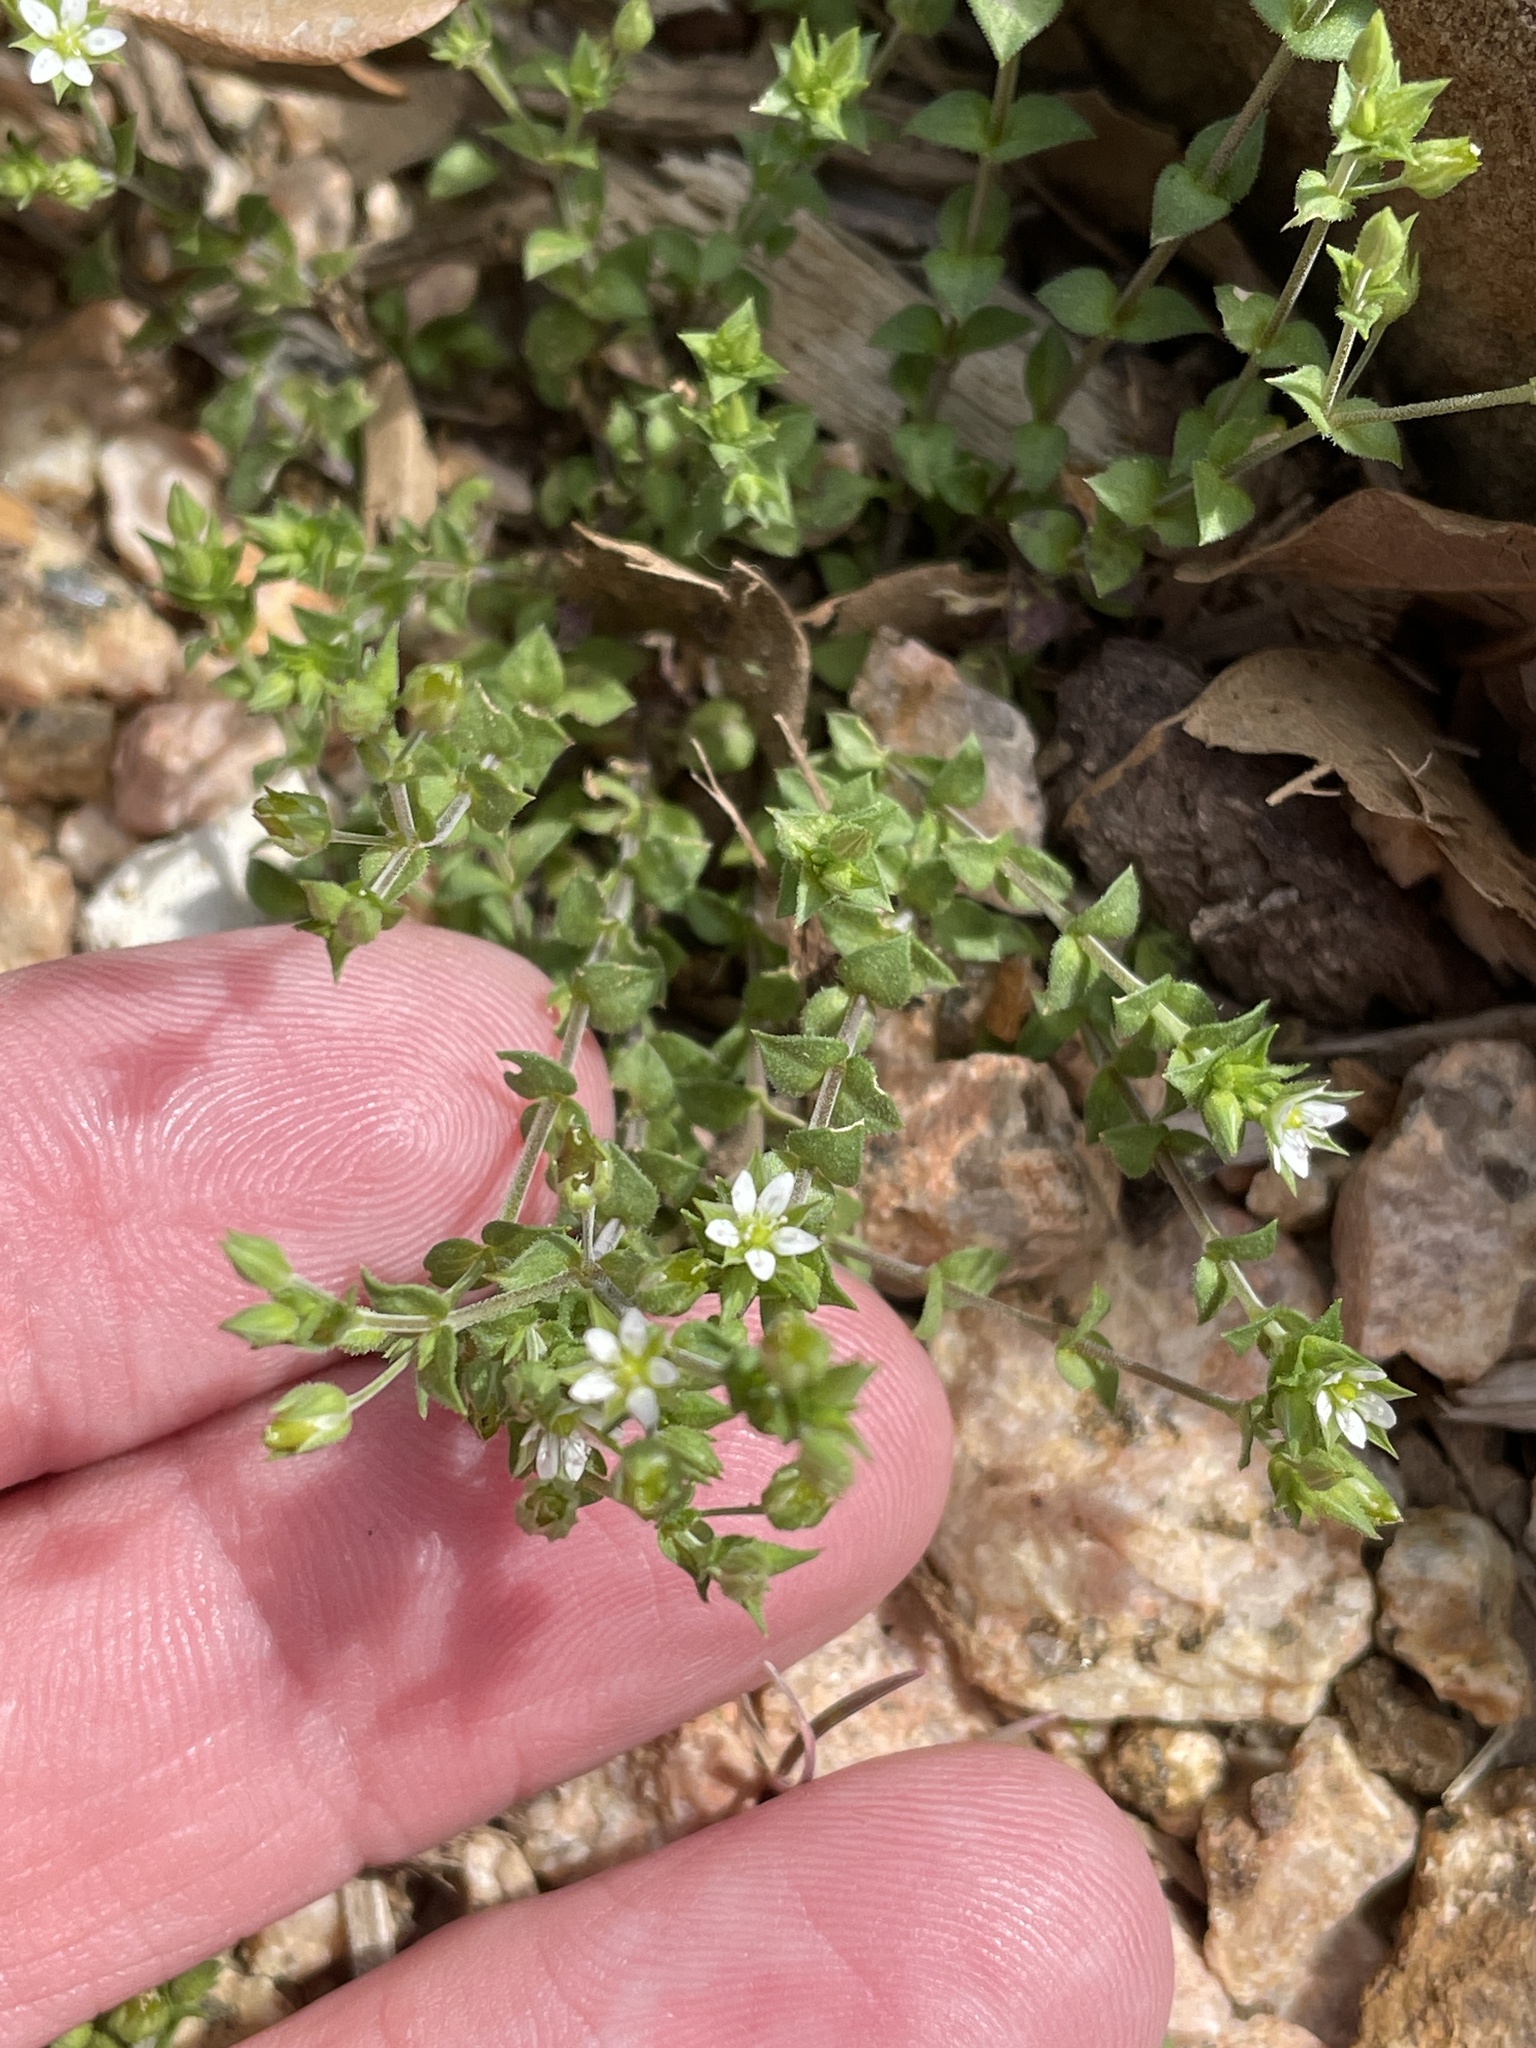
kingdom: Plantae
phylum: Tracheophyta
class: Magnoliopsida
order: Caryophyllales
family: Caryophyllaceae
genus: Arenaria
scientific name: Arenaria serpyllifolia
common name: Thyme-leaved sandwort
